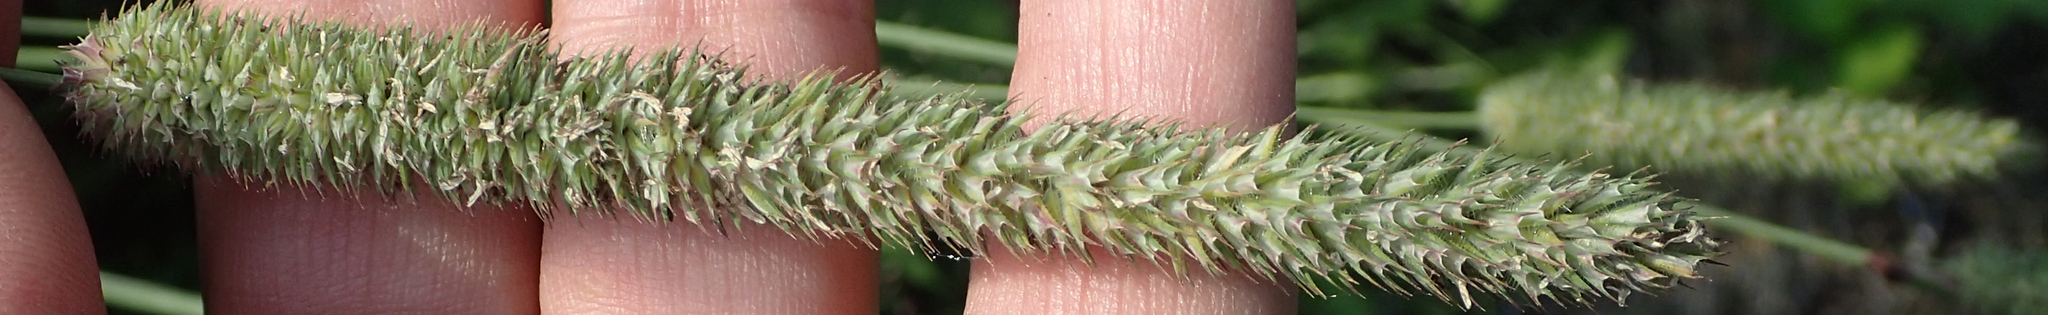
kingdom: Plantae
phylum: Tracheophyta
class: Liliopsida
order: Poales
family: Poaceae
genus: Phleum
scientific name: Phleum pratense
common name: Timothy grass
